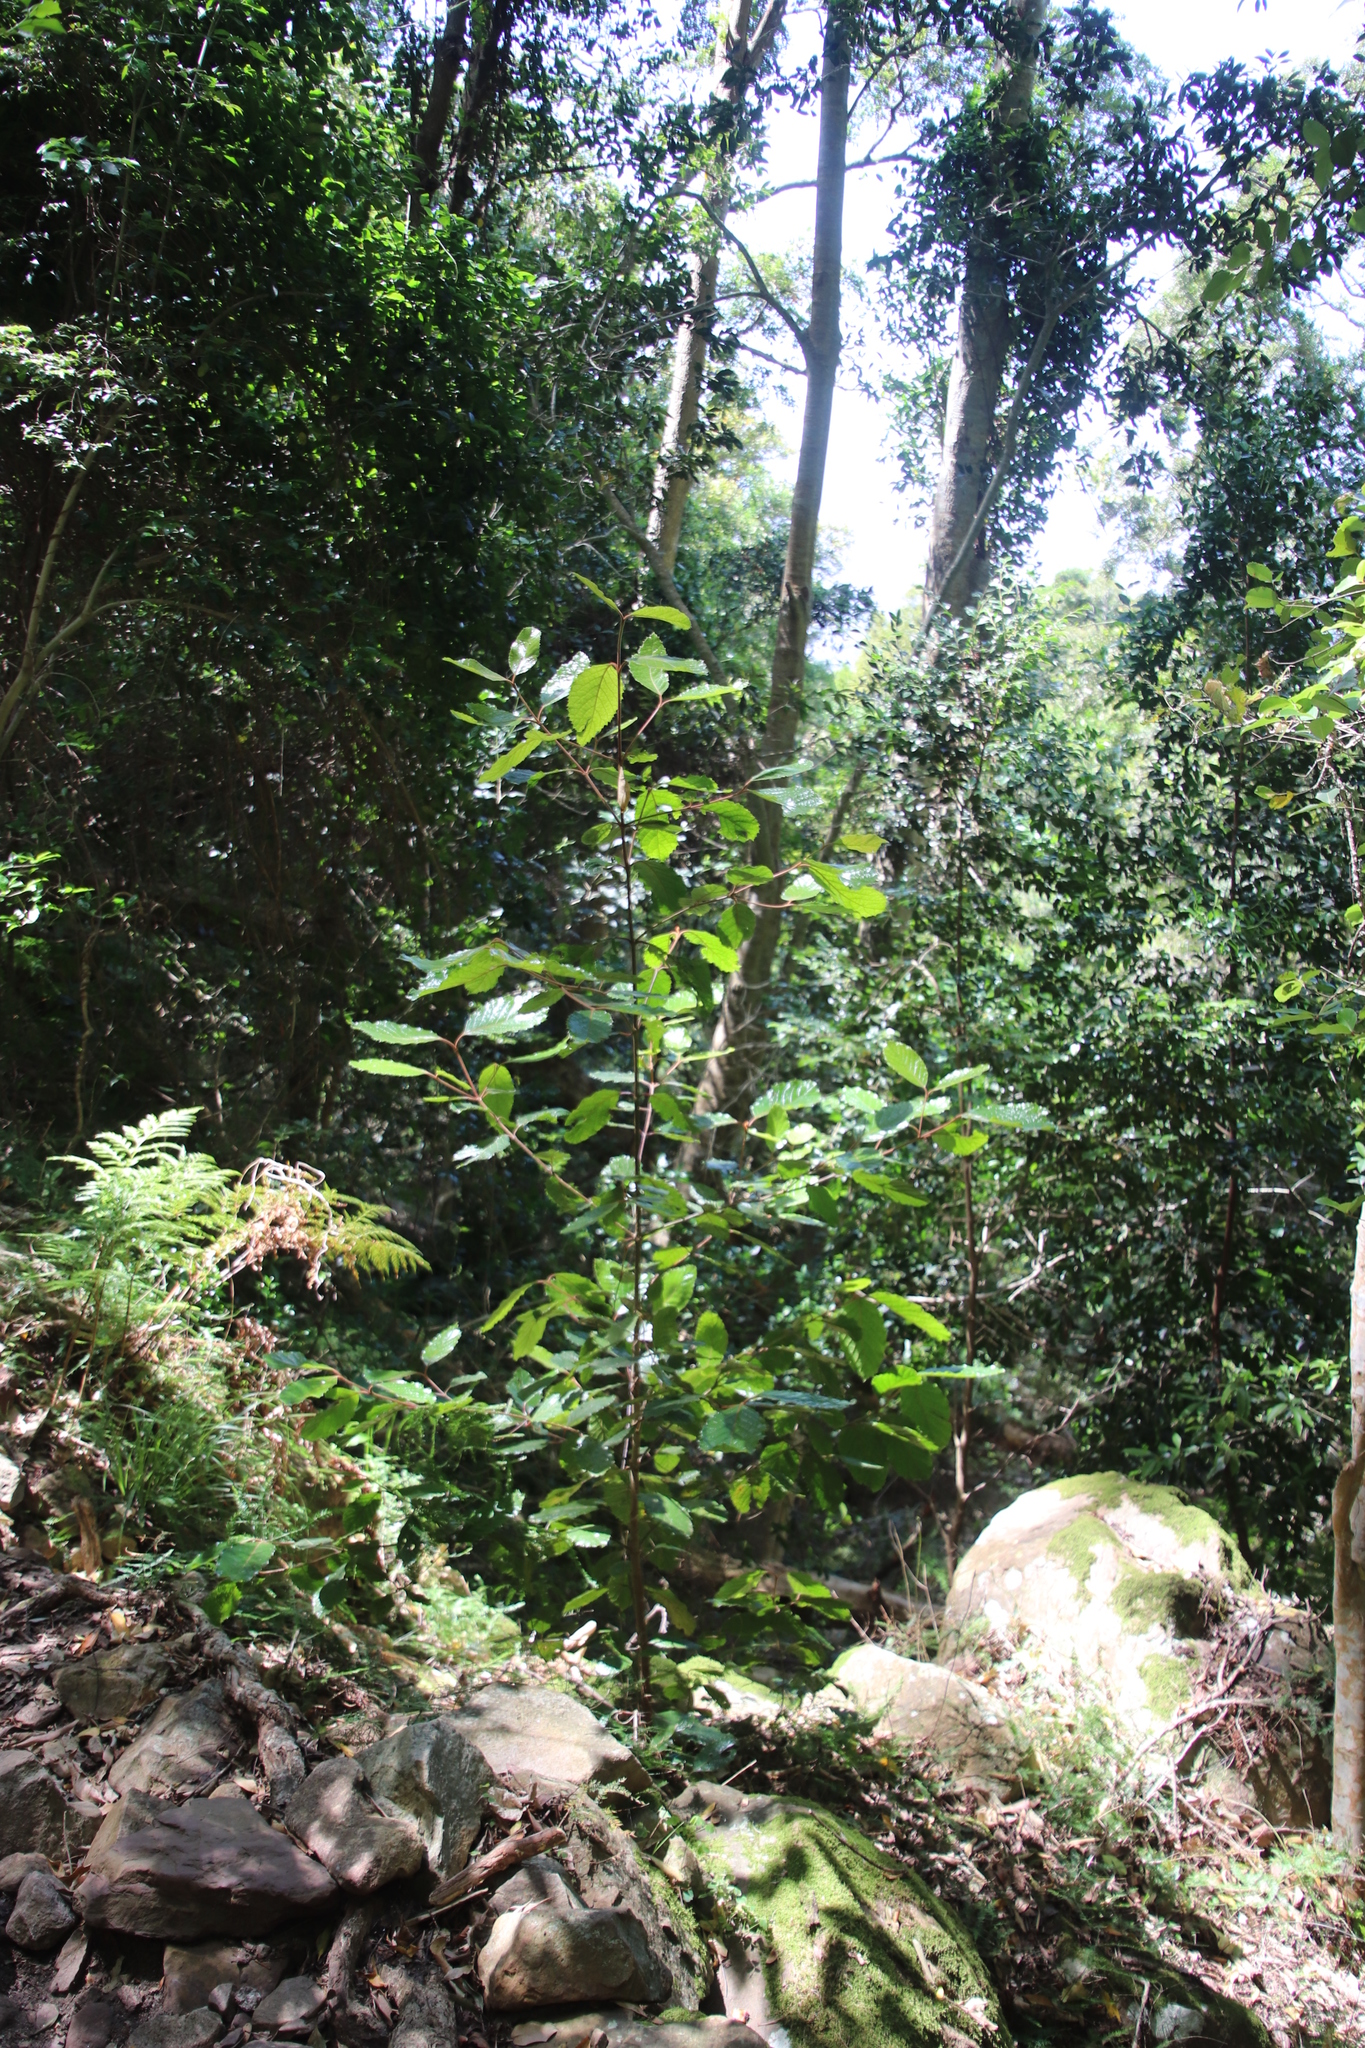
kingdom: Plantae
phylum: Tracheophyta
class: Magnoliopsida
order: Cornales
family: Curtisiaceae
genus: Curtisia
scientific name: Curtisia dentata
